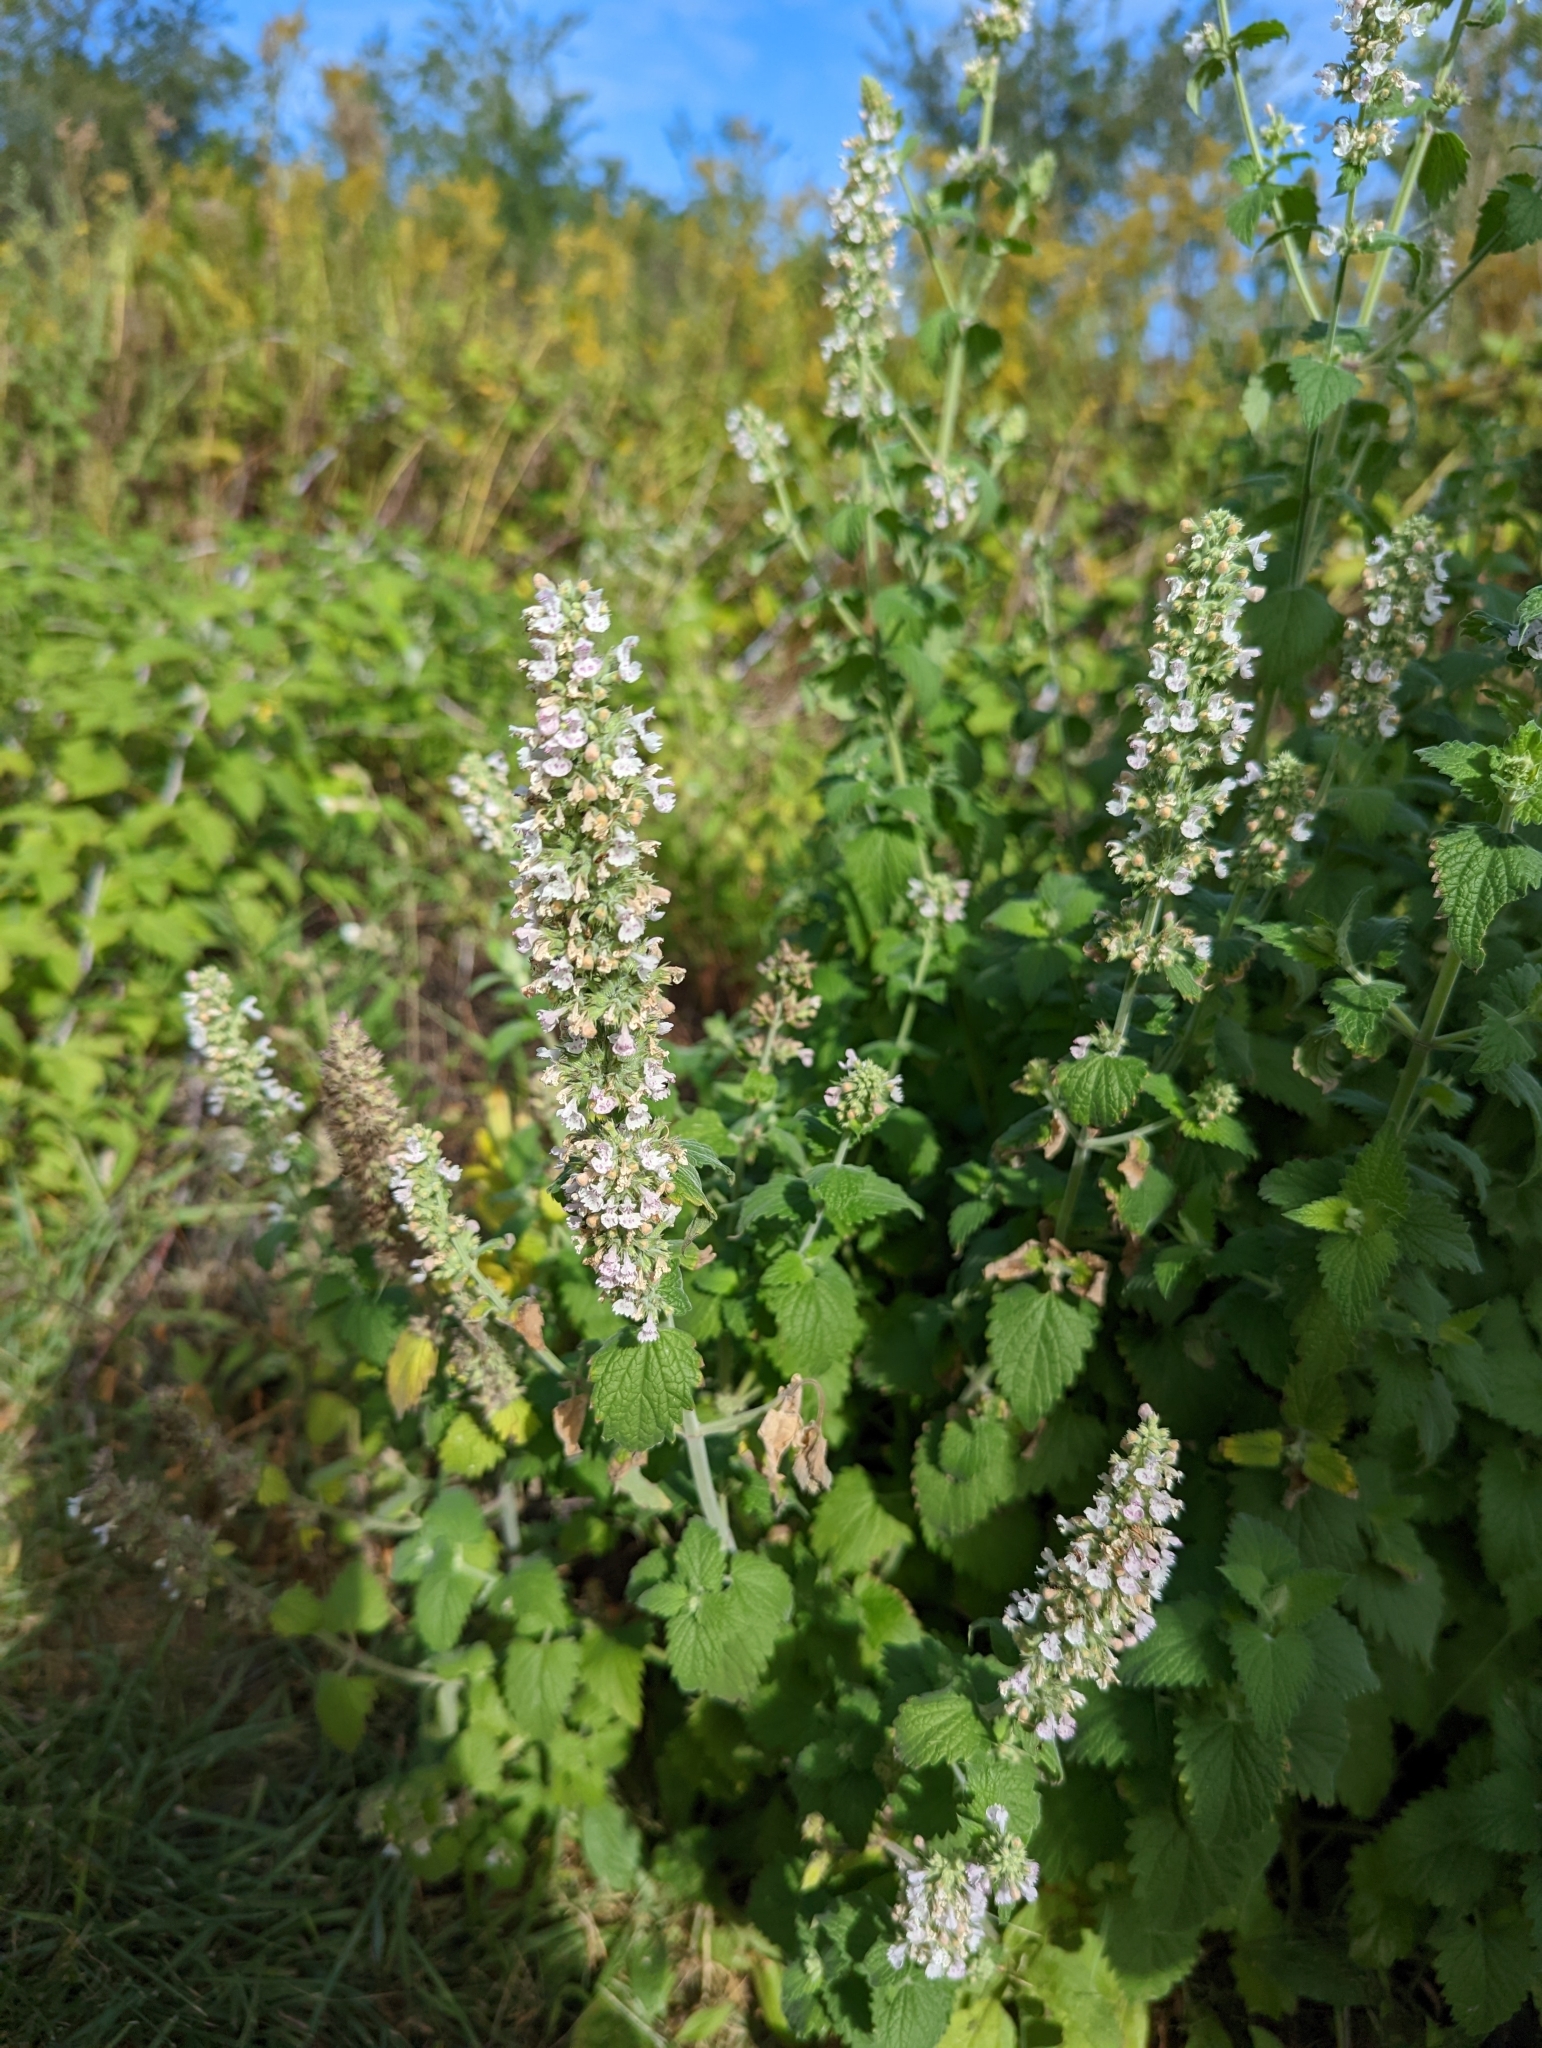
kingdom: Plantae
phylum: Tracheophyta
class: Magnoliopsida
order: Lamiales
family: Lamiaceae
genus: Nepeta
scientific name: Nepeta cataria
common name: Catnip
